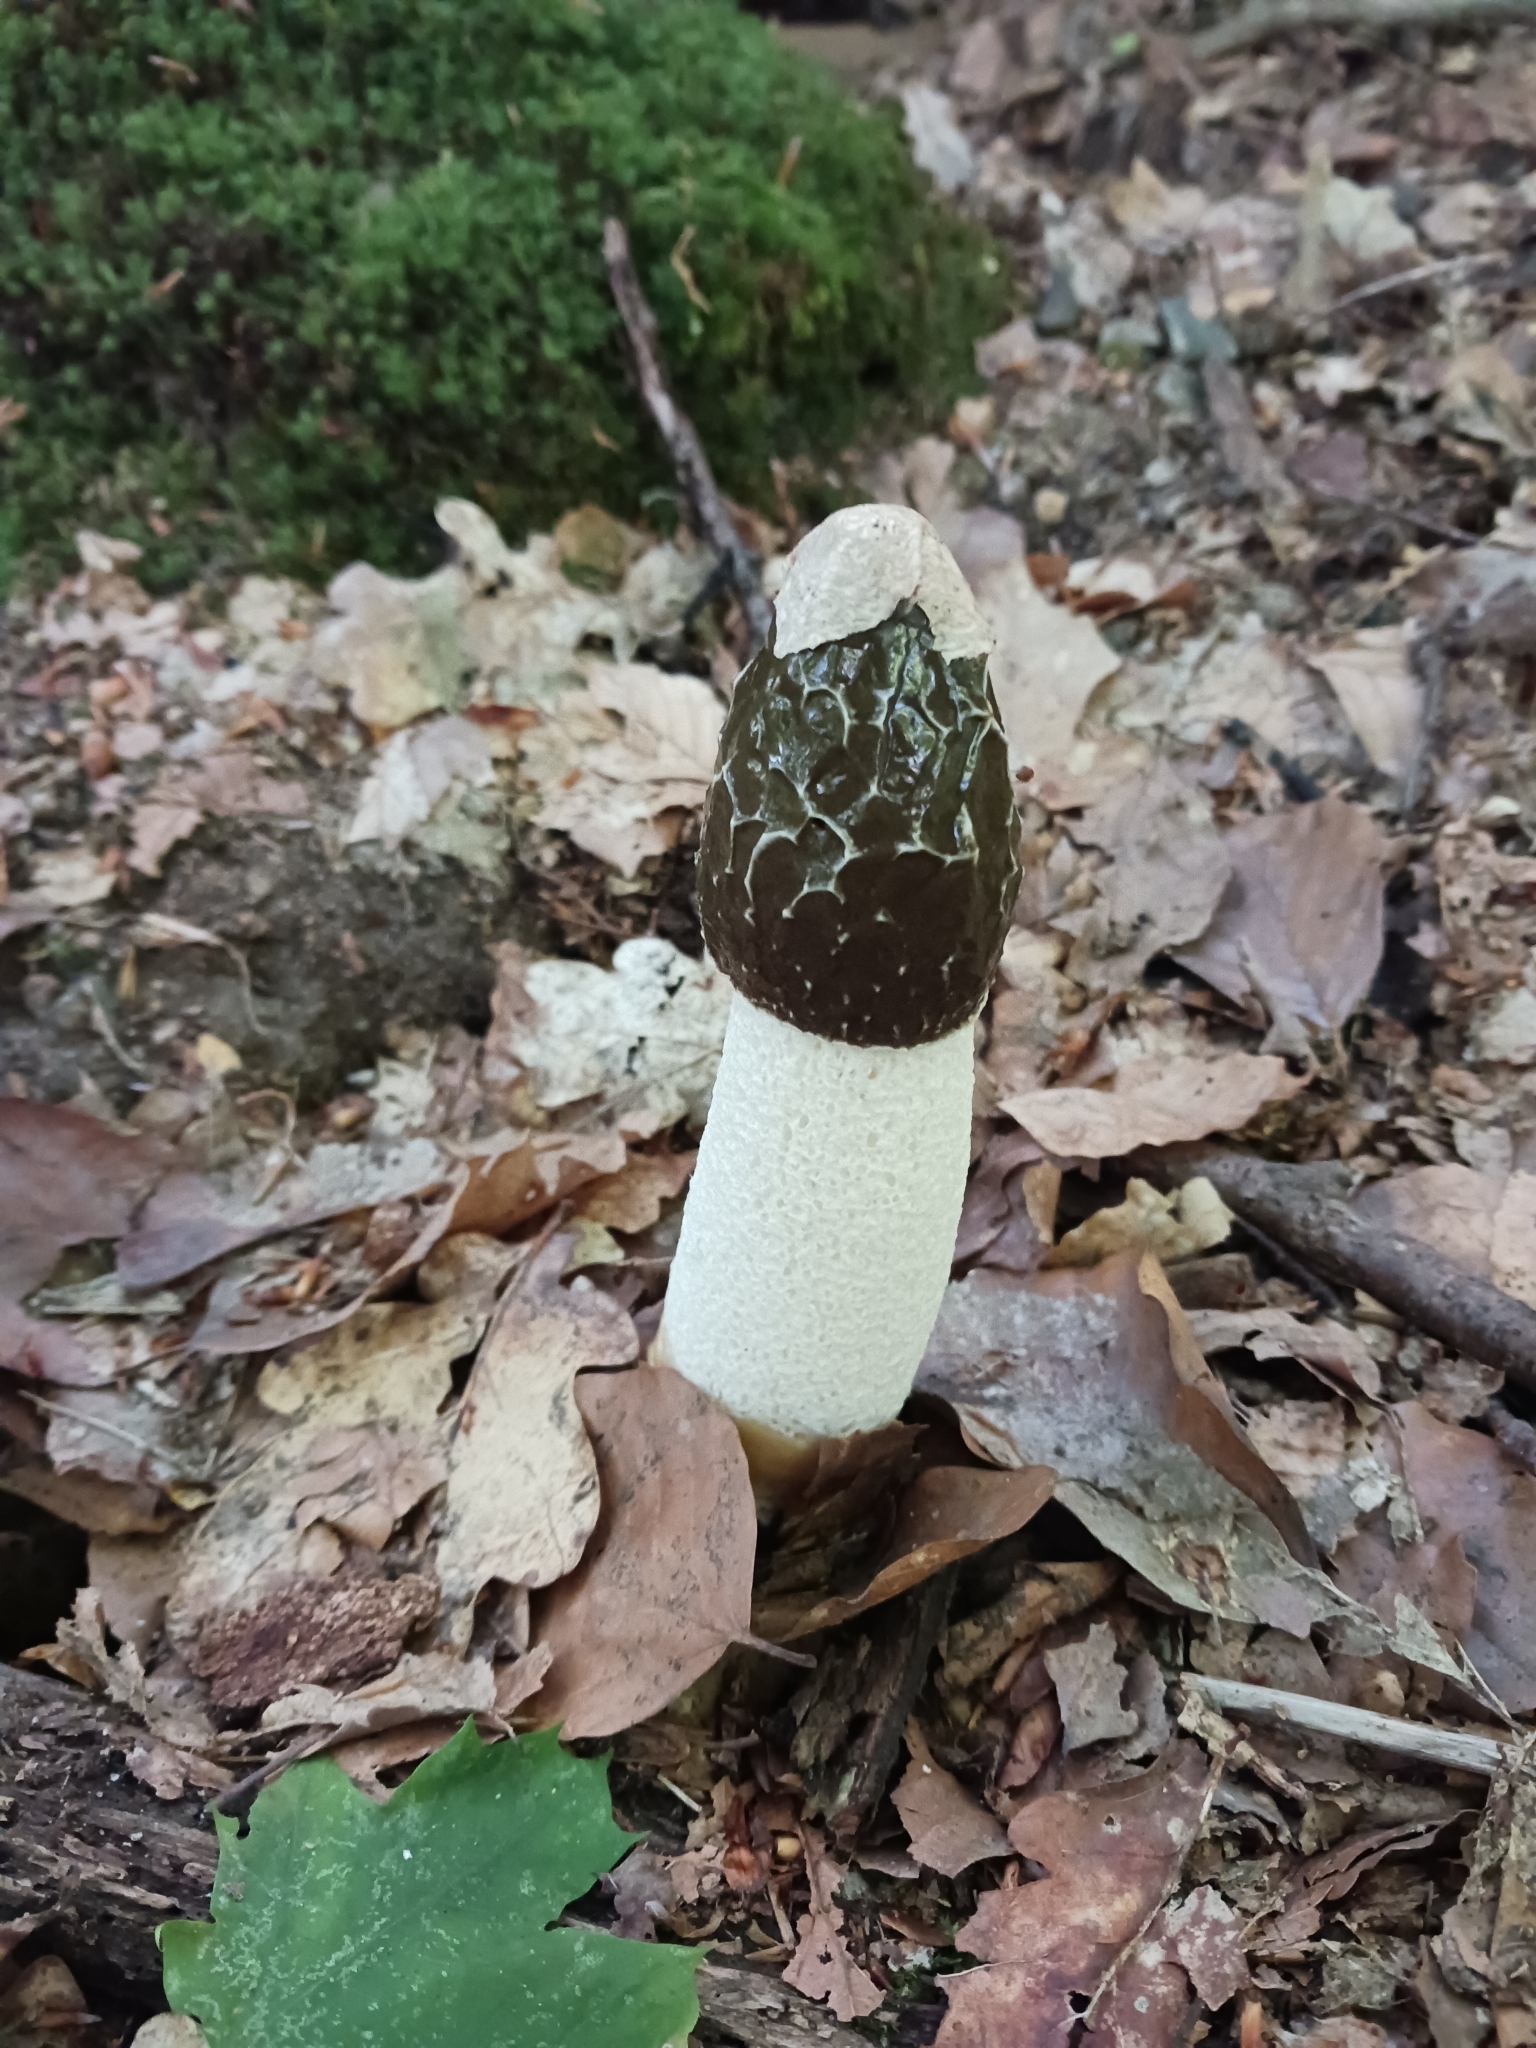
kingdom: Fungi
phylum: Basidiomycota
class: Agaricomycetes
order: Phallales
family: Phallaceae
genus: Phallus
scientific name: Phallus impudicus
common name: Common stinkhorn
